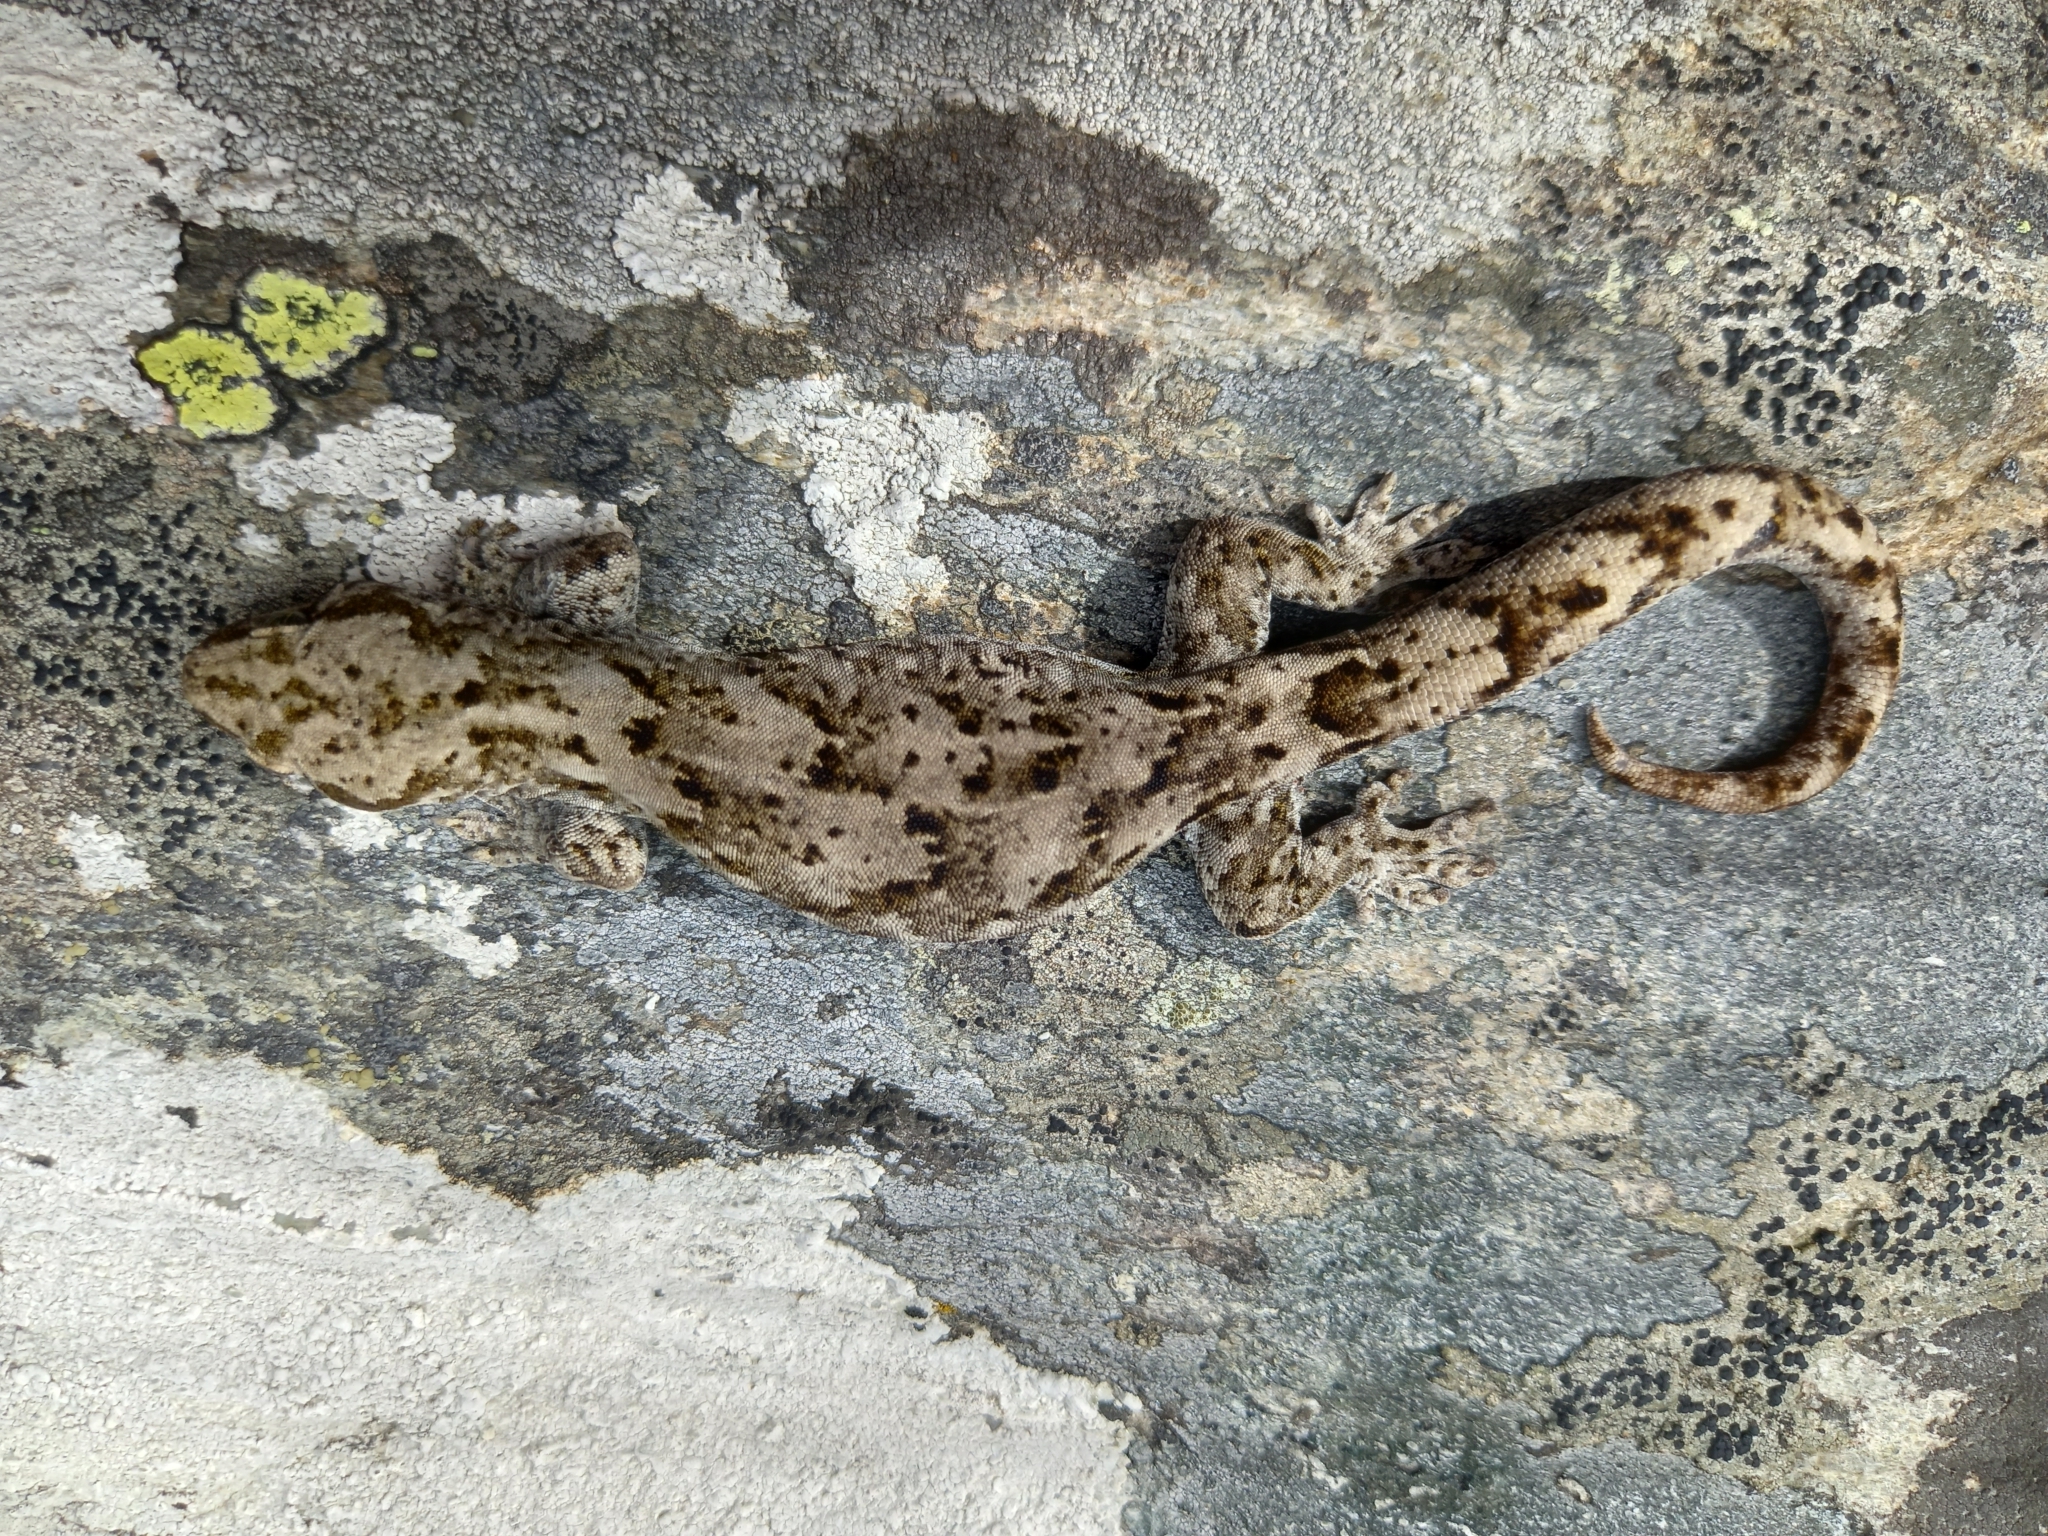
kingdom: Animalia
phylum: Chordata
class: Squamata
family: Diplodactylidae
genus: Woodworthia
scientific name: Woodworthia
